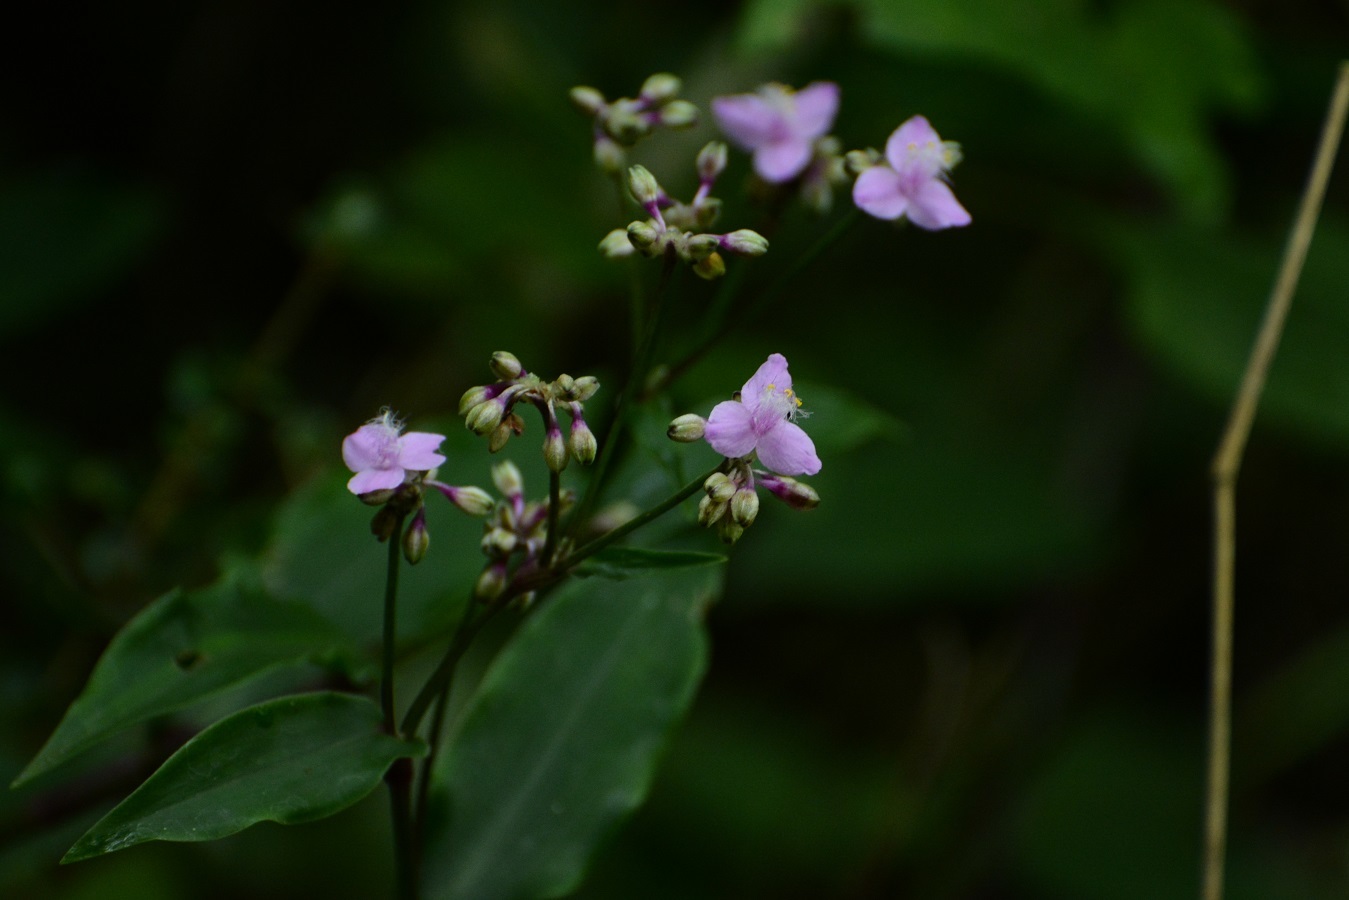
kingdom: Plantae
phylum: Tracheophyta
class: Liliopsida
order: Commelinales
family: Commelinaceae
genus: Callisia
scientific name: Callisia amplexicaulis
